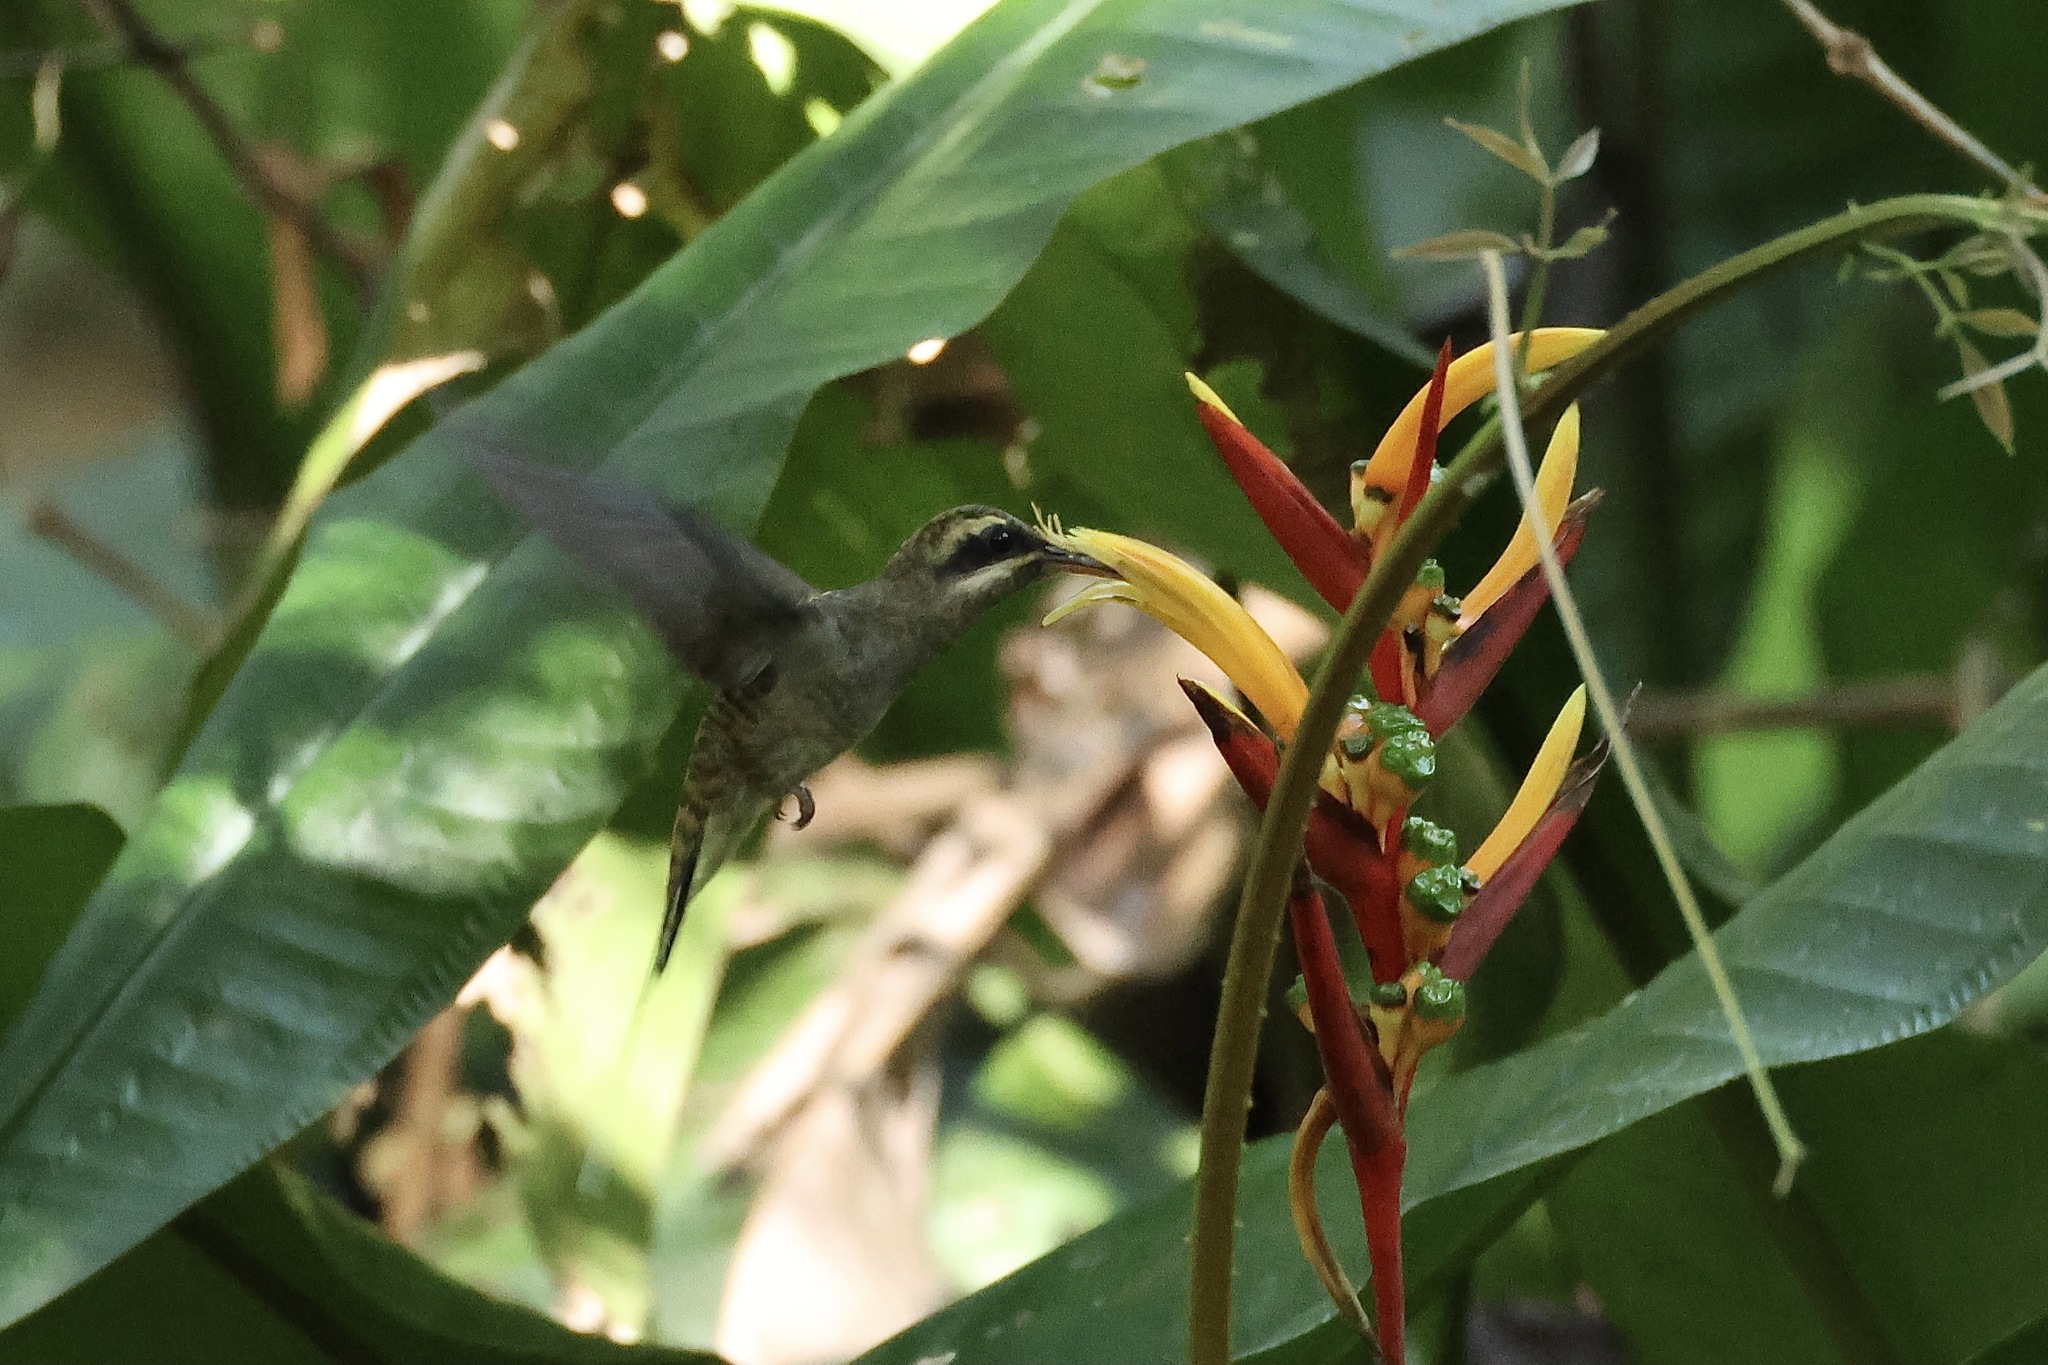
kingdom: Animalia
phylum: Chordata
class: Aves
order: Apodiformes
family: Trochilidae
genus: Phaethornis
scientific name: Phaethornis longirostris
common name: Long-billed hermit
